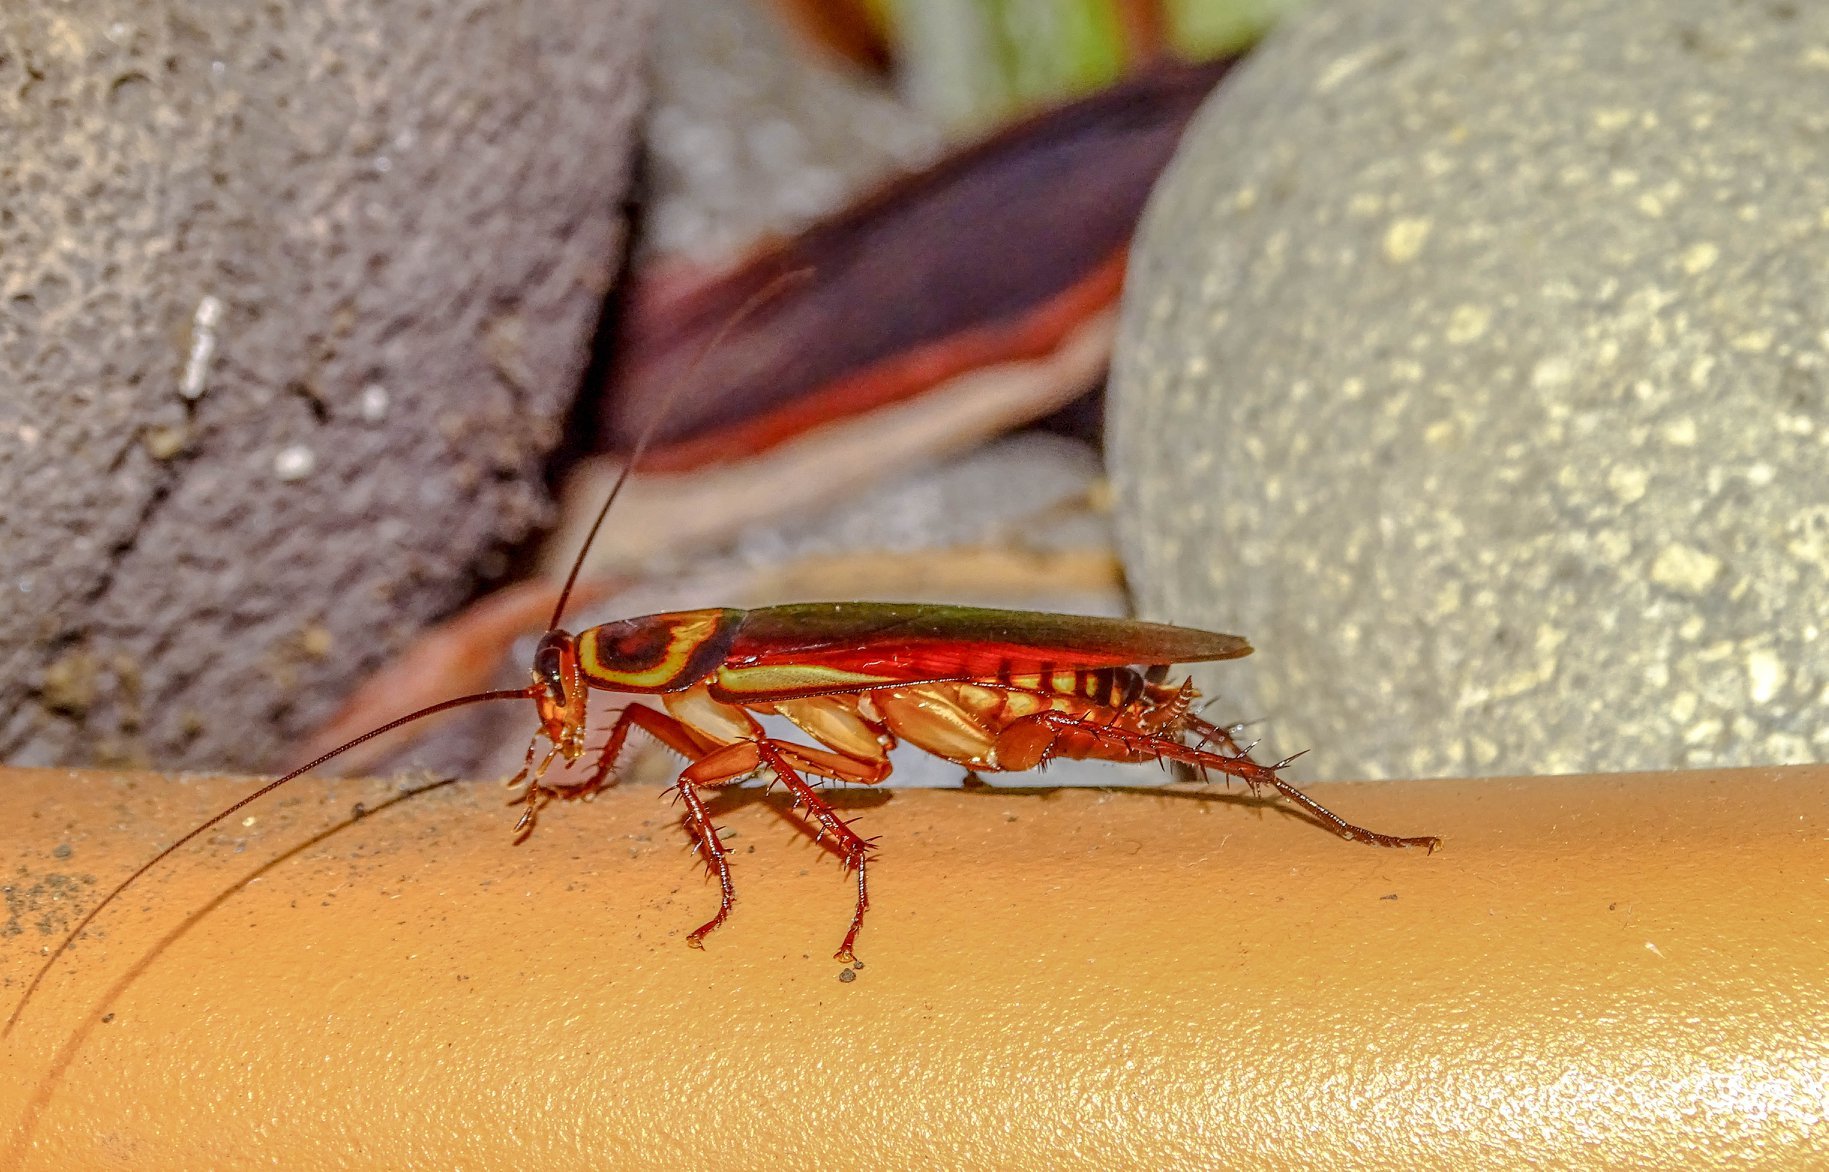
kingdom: Animalia
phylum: Arthropoda
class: Insecta
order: Blattodea
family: Blattidae
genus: Periplaneta
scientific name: Periplaneta americana
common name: American cockroach
